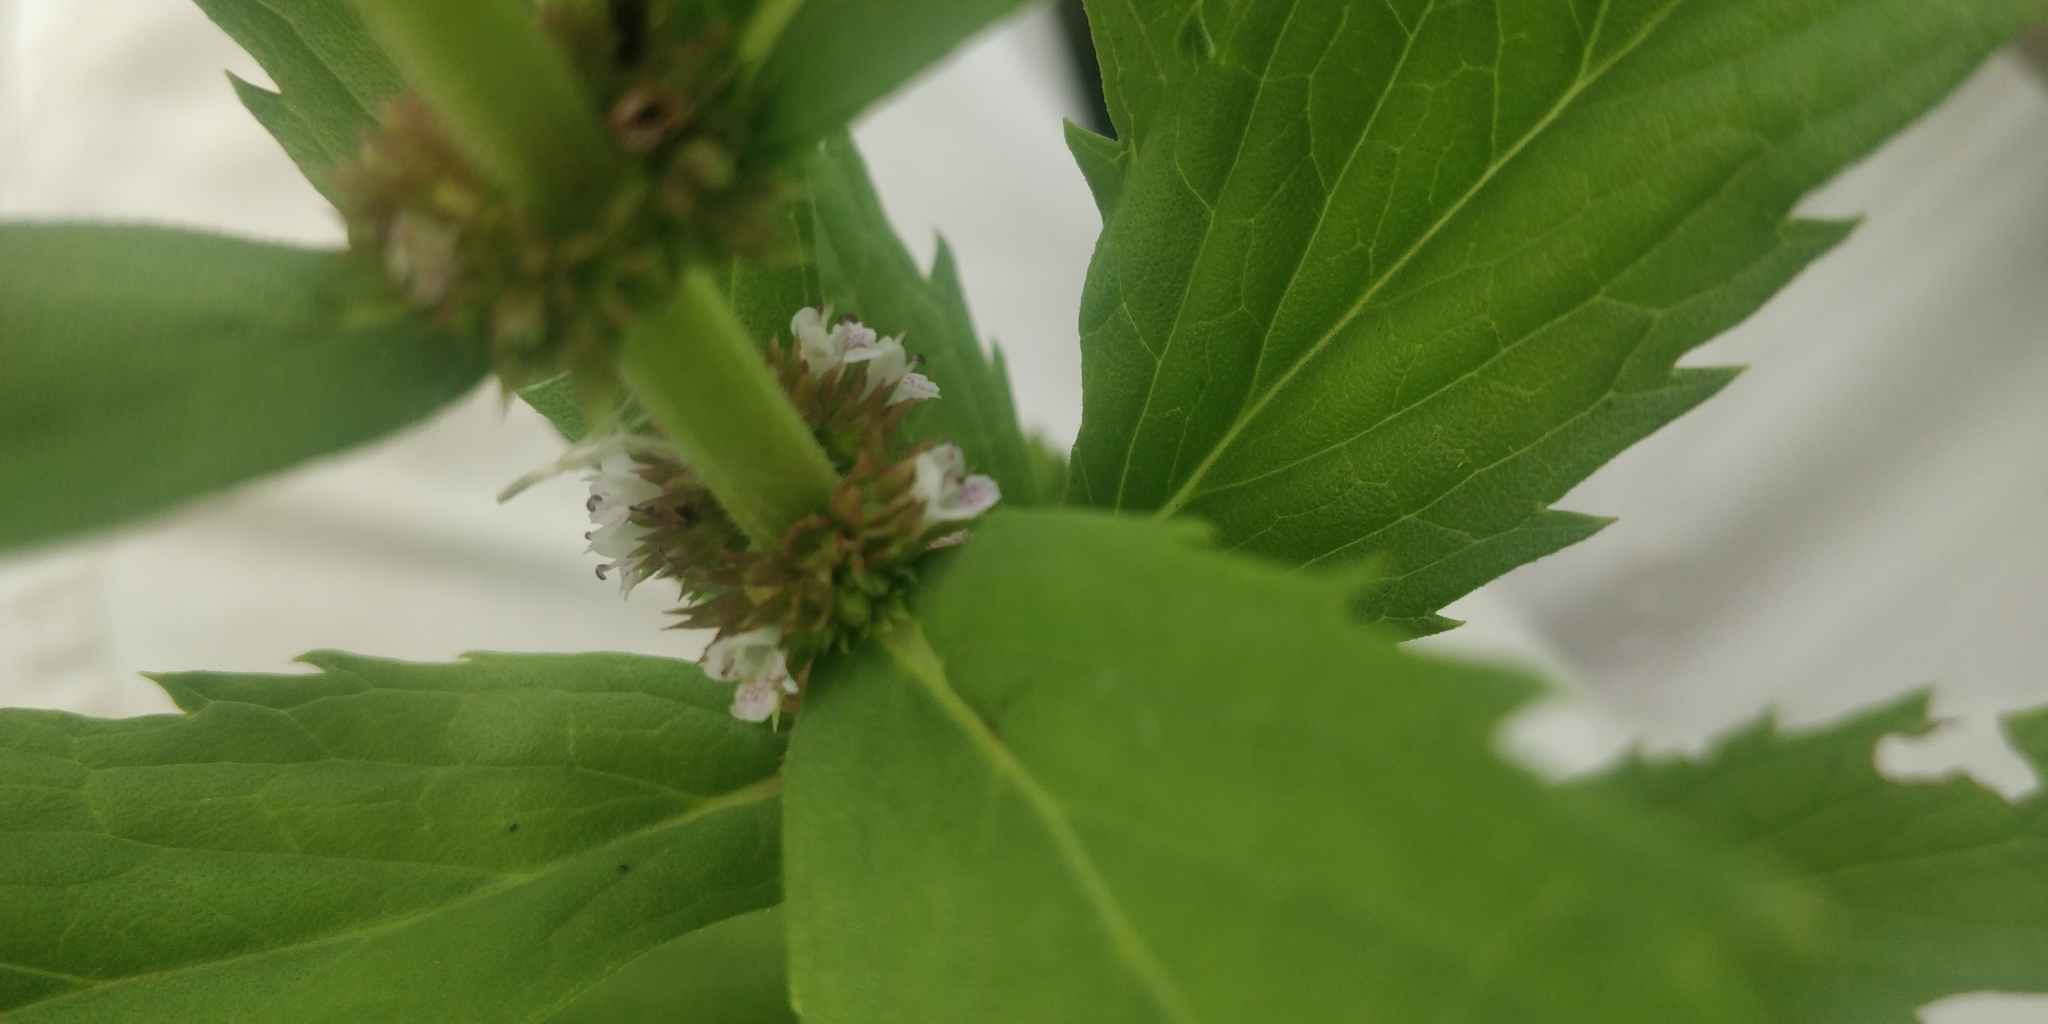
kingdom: Plantae
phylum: Tracheophyta
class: Magnoliopsida
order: Lamiales
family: Lamiaceae
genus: Lycopus
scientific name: Lycopus asper
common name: Rough water-horehound
